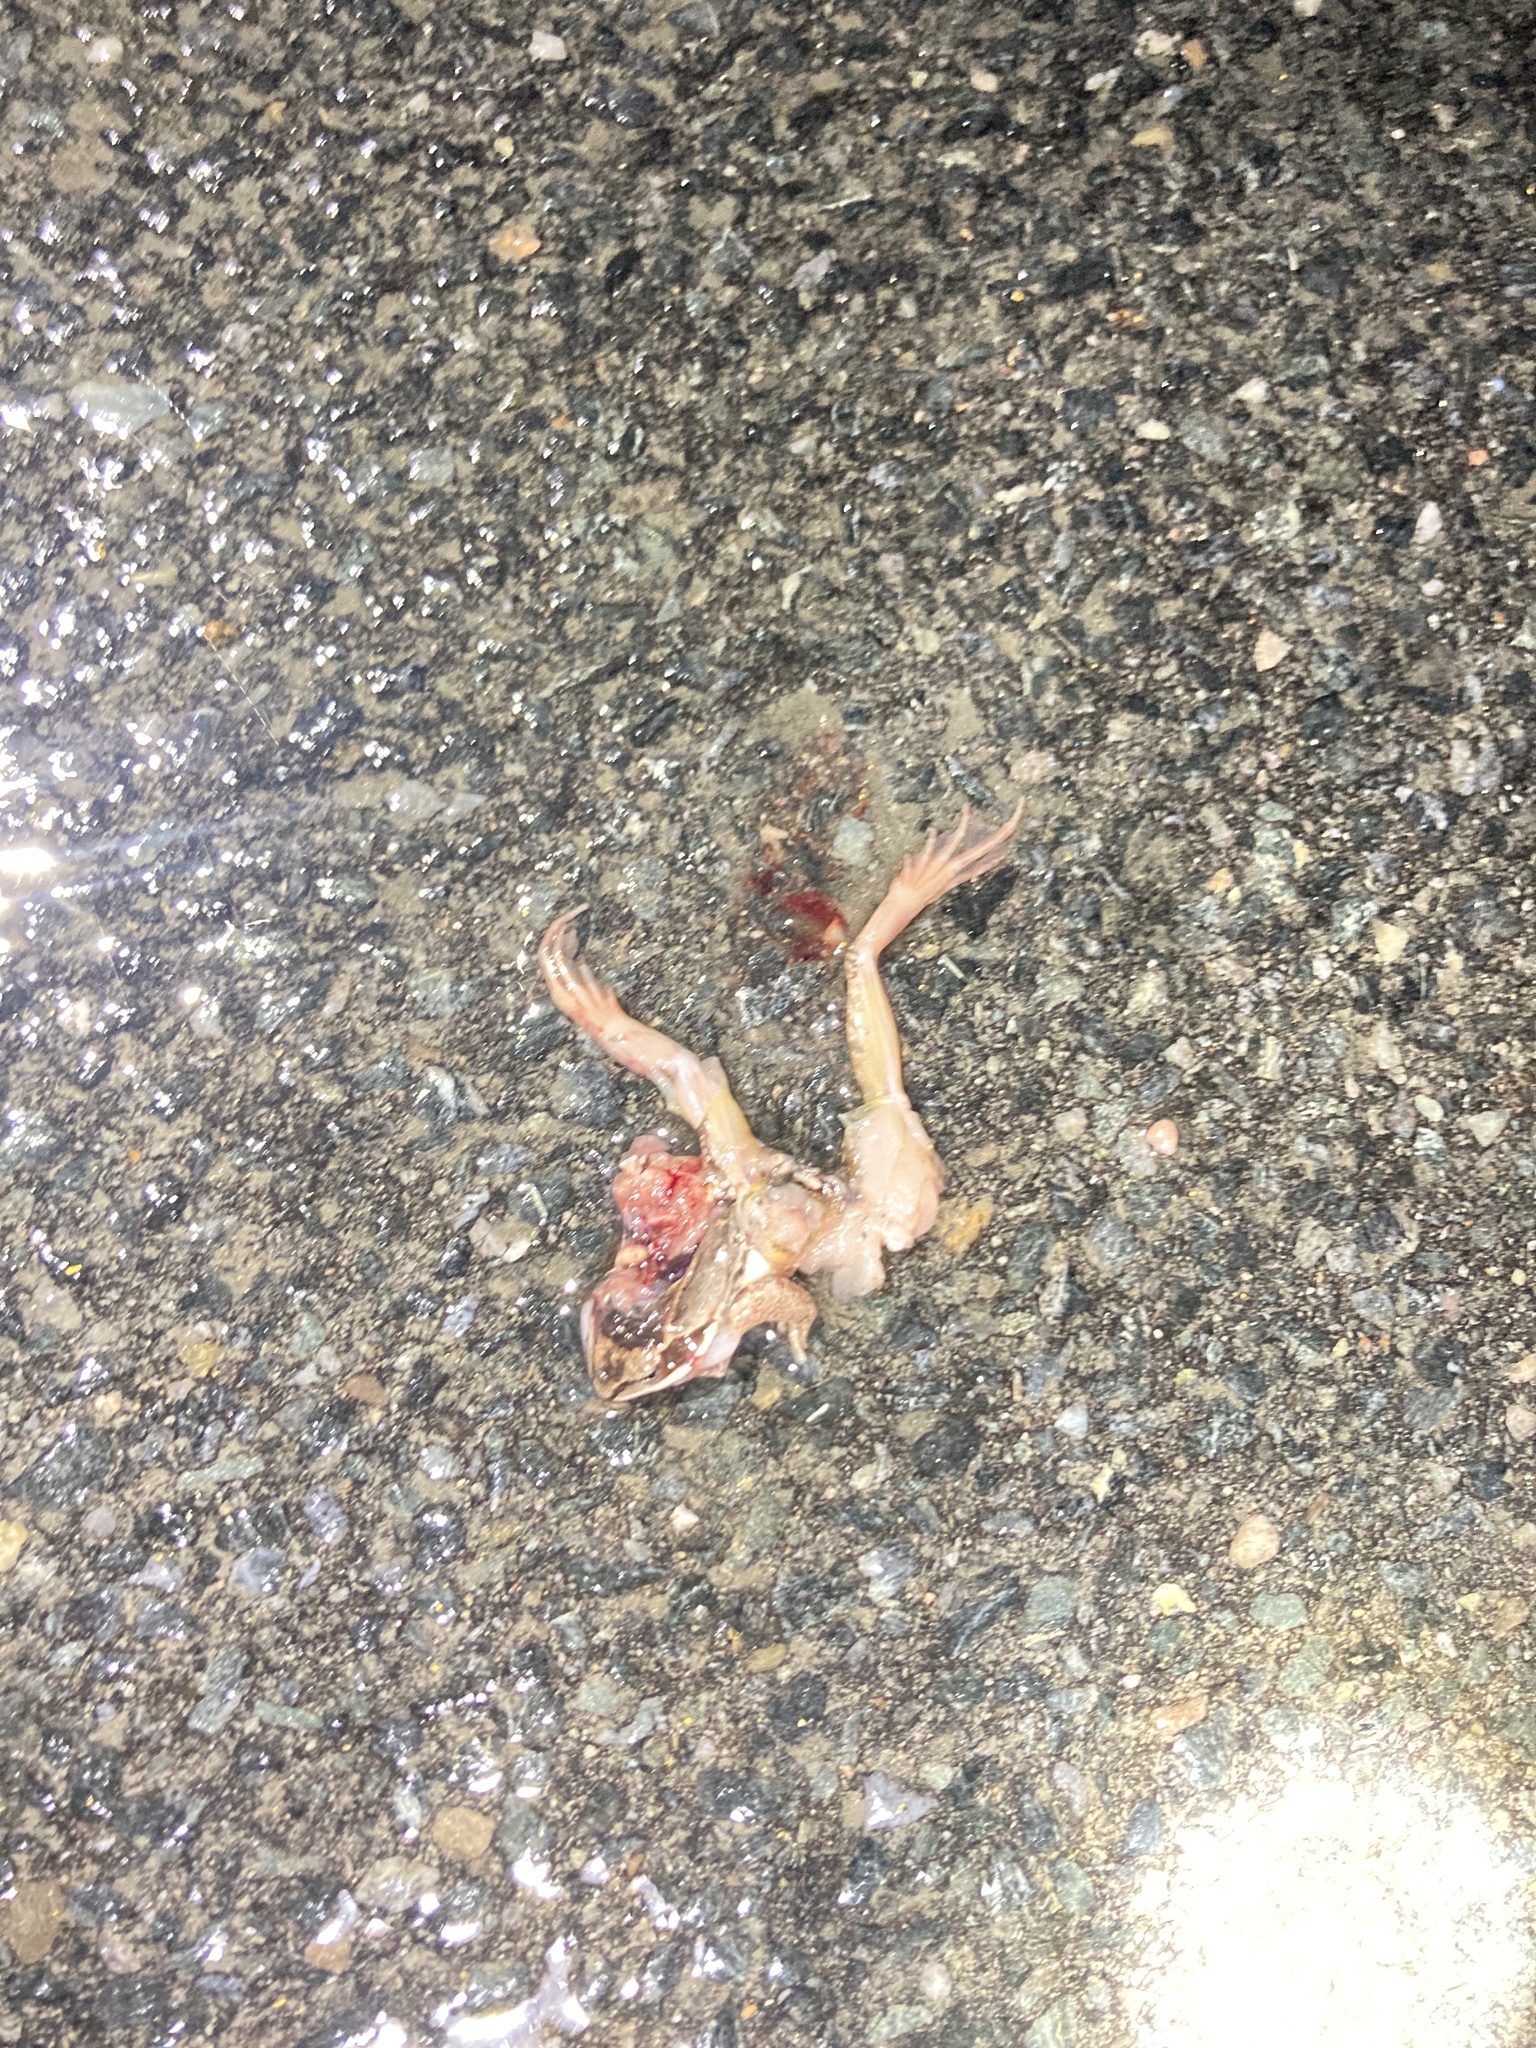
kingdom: Animalia
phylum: Chordata
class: Amphibia
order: Anura
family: Ranidae
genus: Lithobates
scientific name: Lithobates sylvaticus
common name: Wood frog
